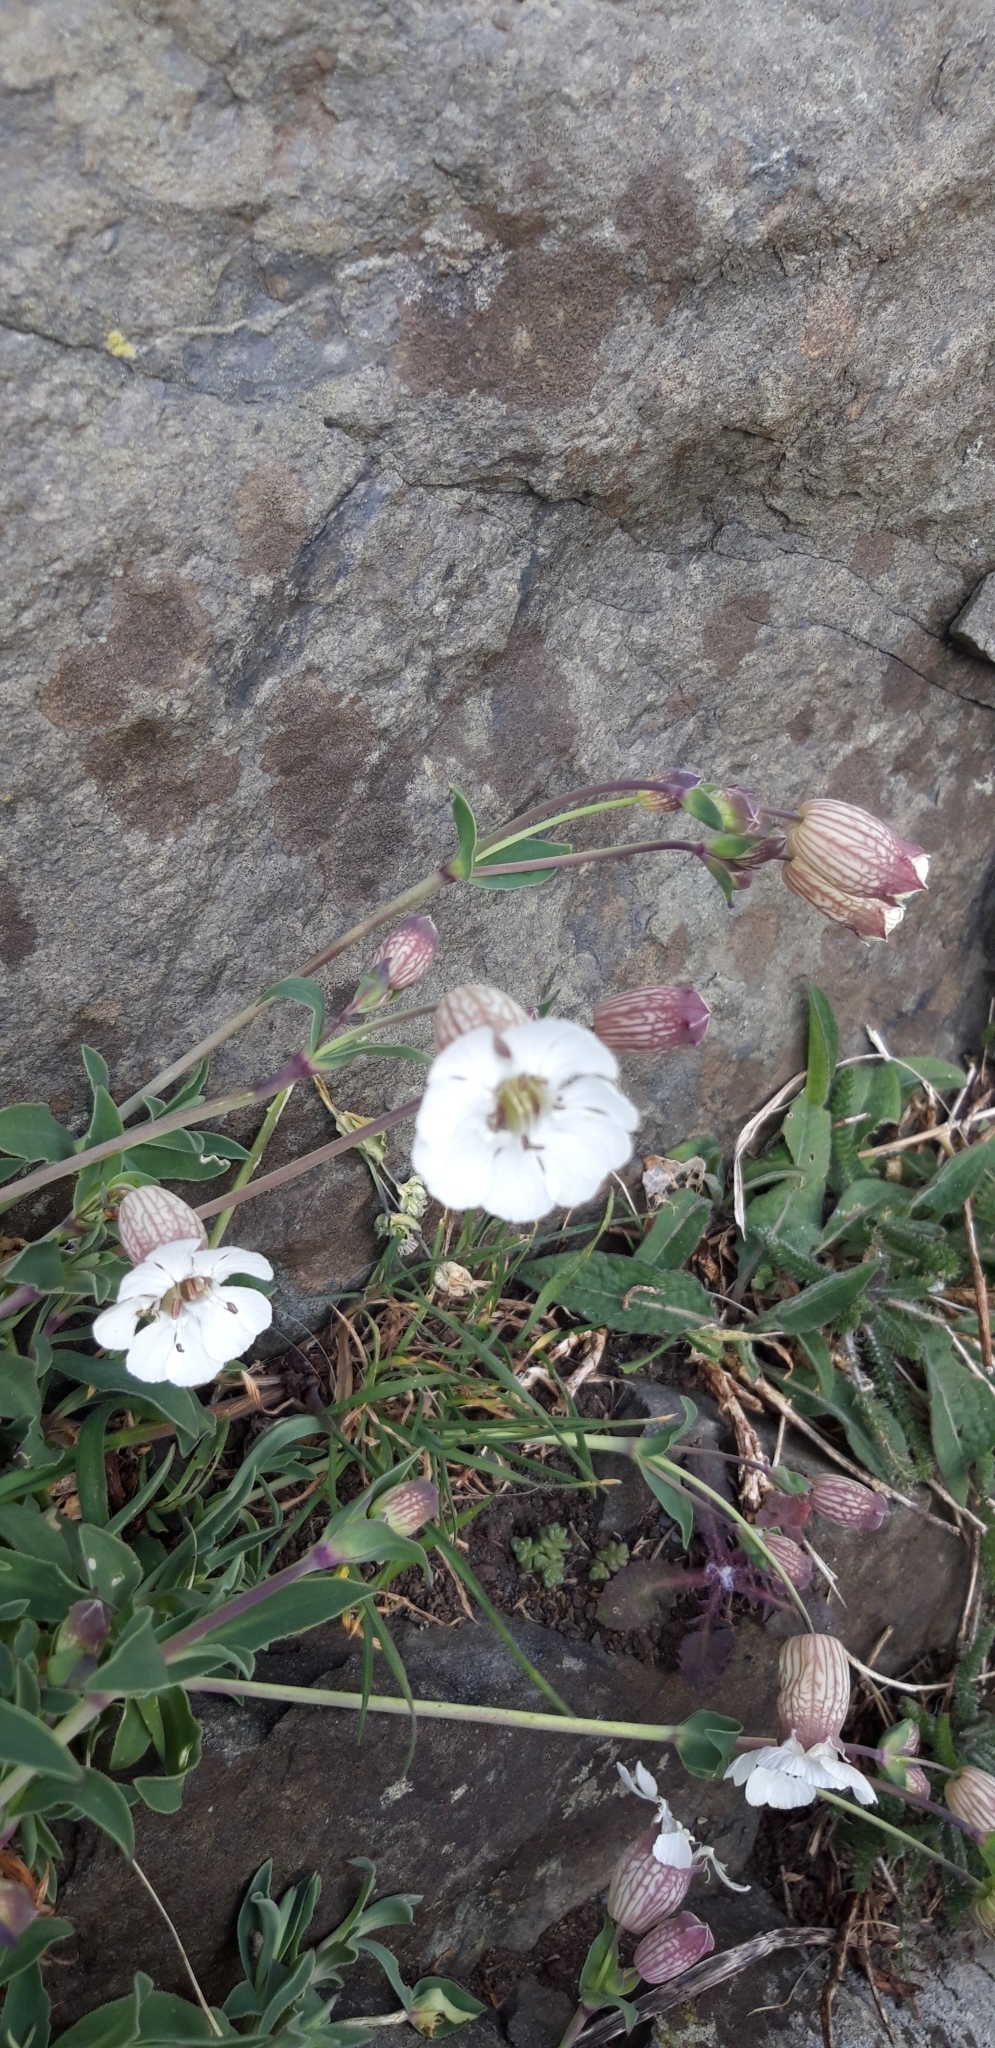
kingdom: Plantae
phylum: Tracheophyta
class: Magnoliopsida
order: Caryophyllales
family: Caryophyllaceae
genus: Silene
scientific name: Silene uniflora
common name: Sea campion
